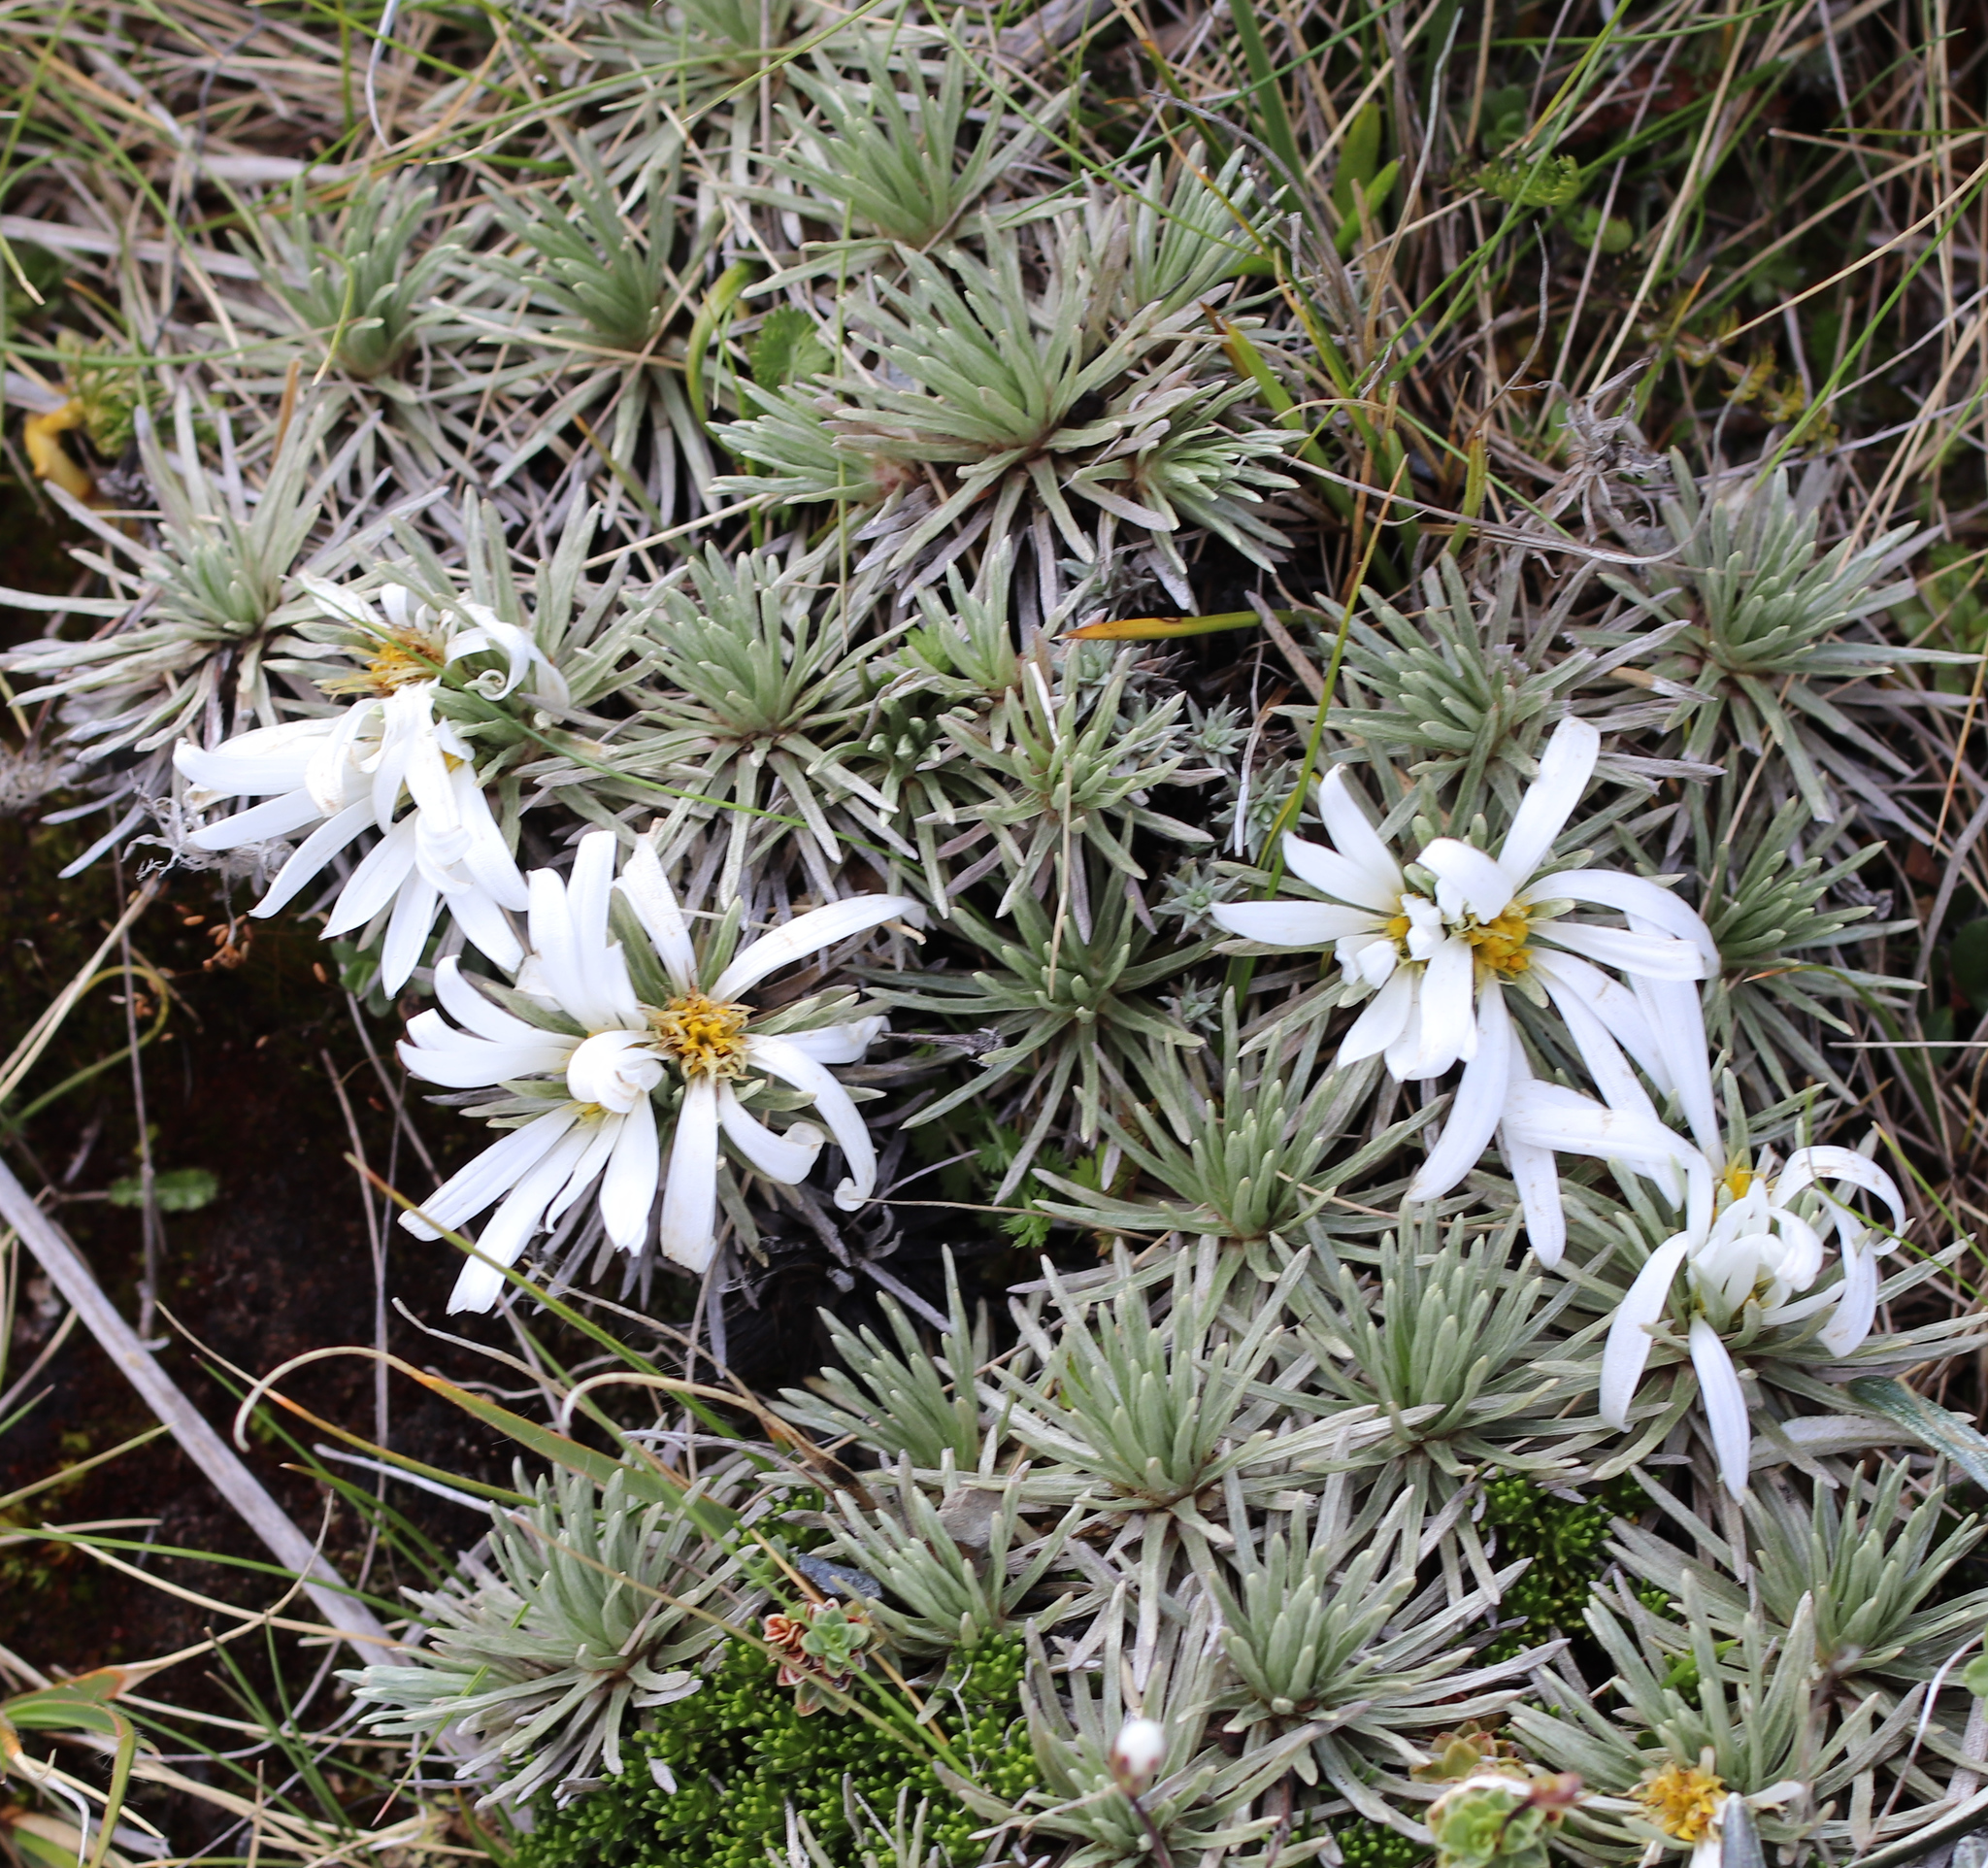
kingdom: Plantae
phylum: Tracheophyta
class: Magnoliopsida
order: Asterales
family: Asteraceae
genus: Celmisia
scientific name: Celmisia sessiliflora
